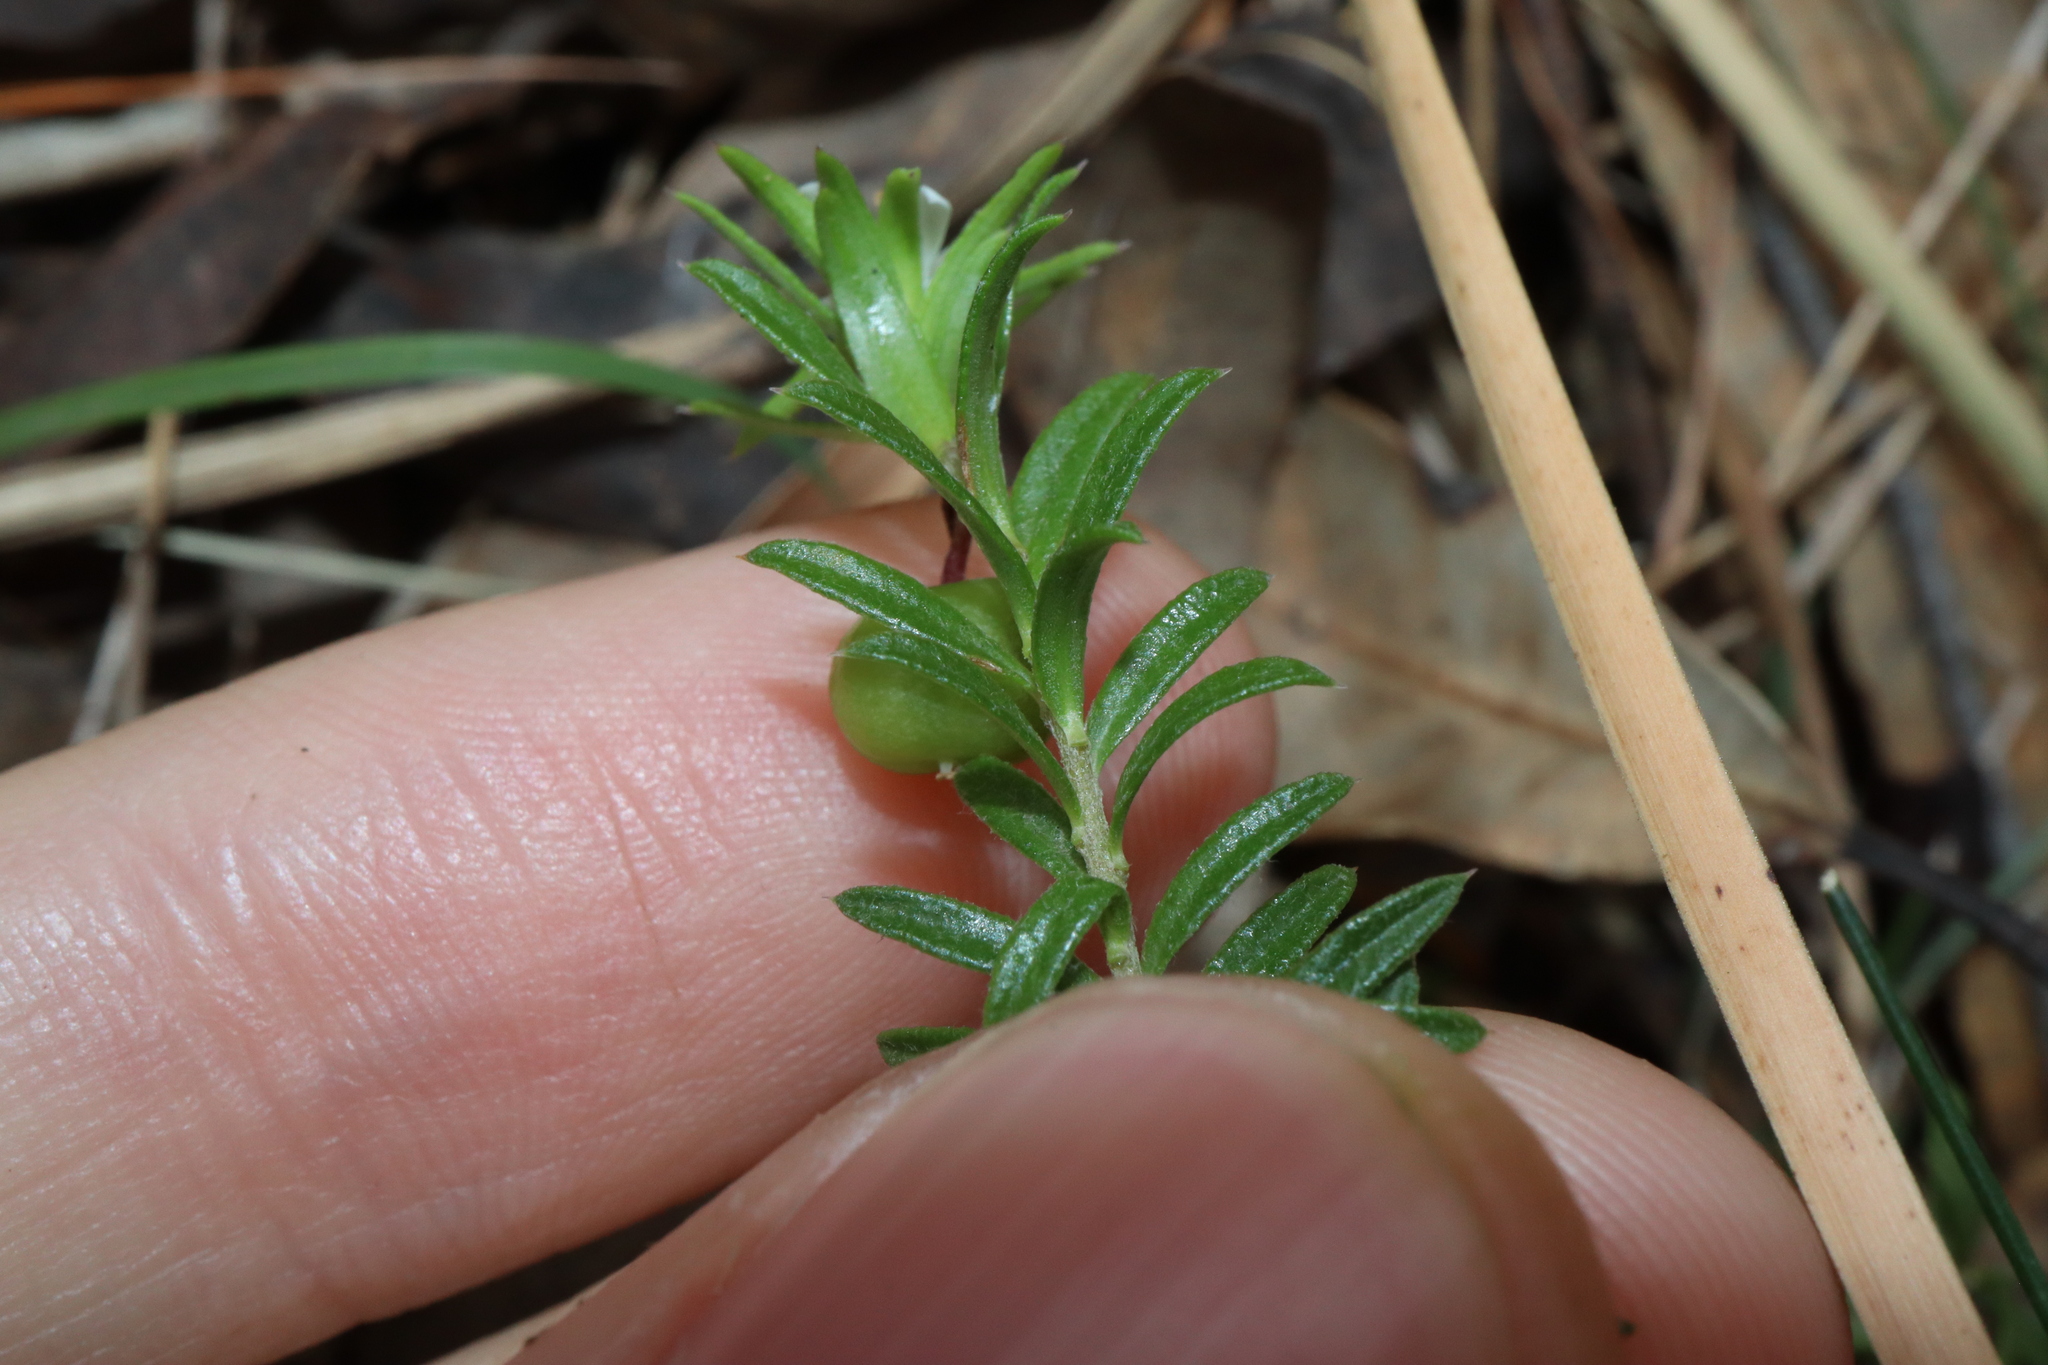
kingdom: Plantae
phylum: Tracheophyta
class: Magnoliopsida
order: Apiales
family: Pittosporaceae
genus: Rhytidosporum
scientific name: Rhytidosporum procumbens
